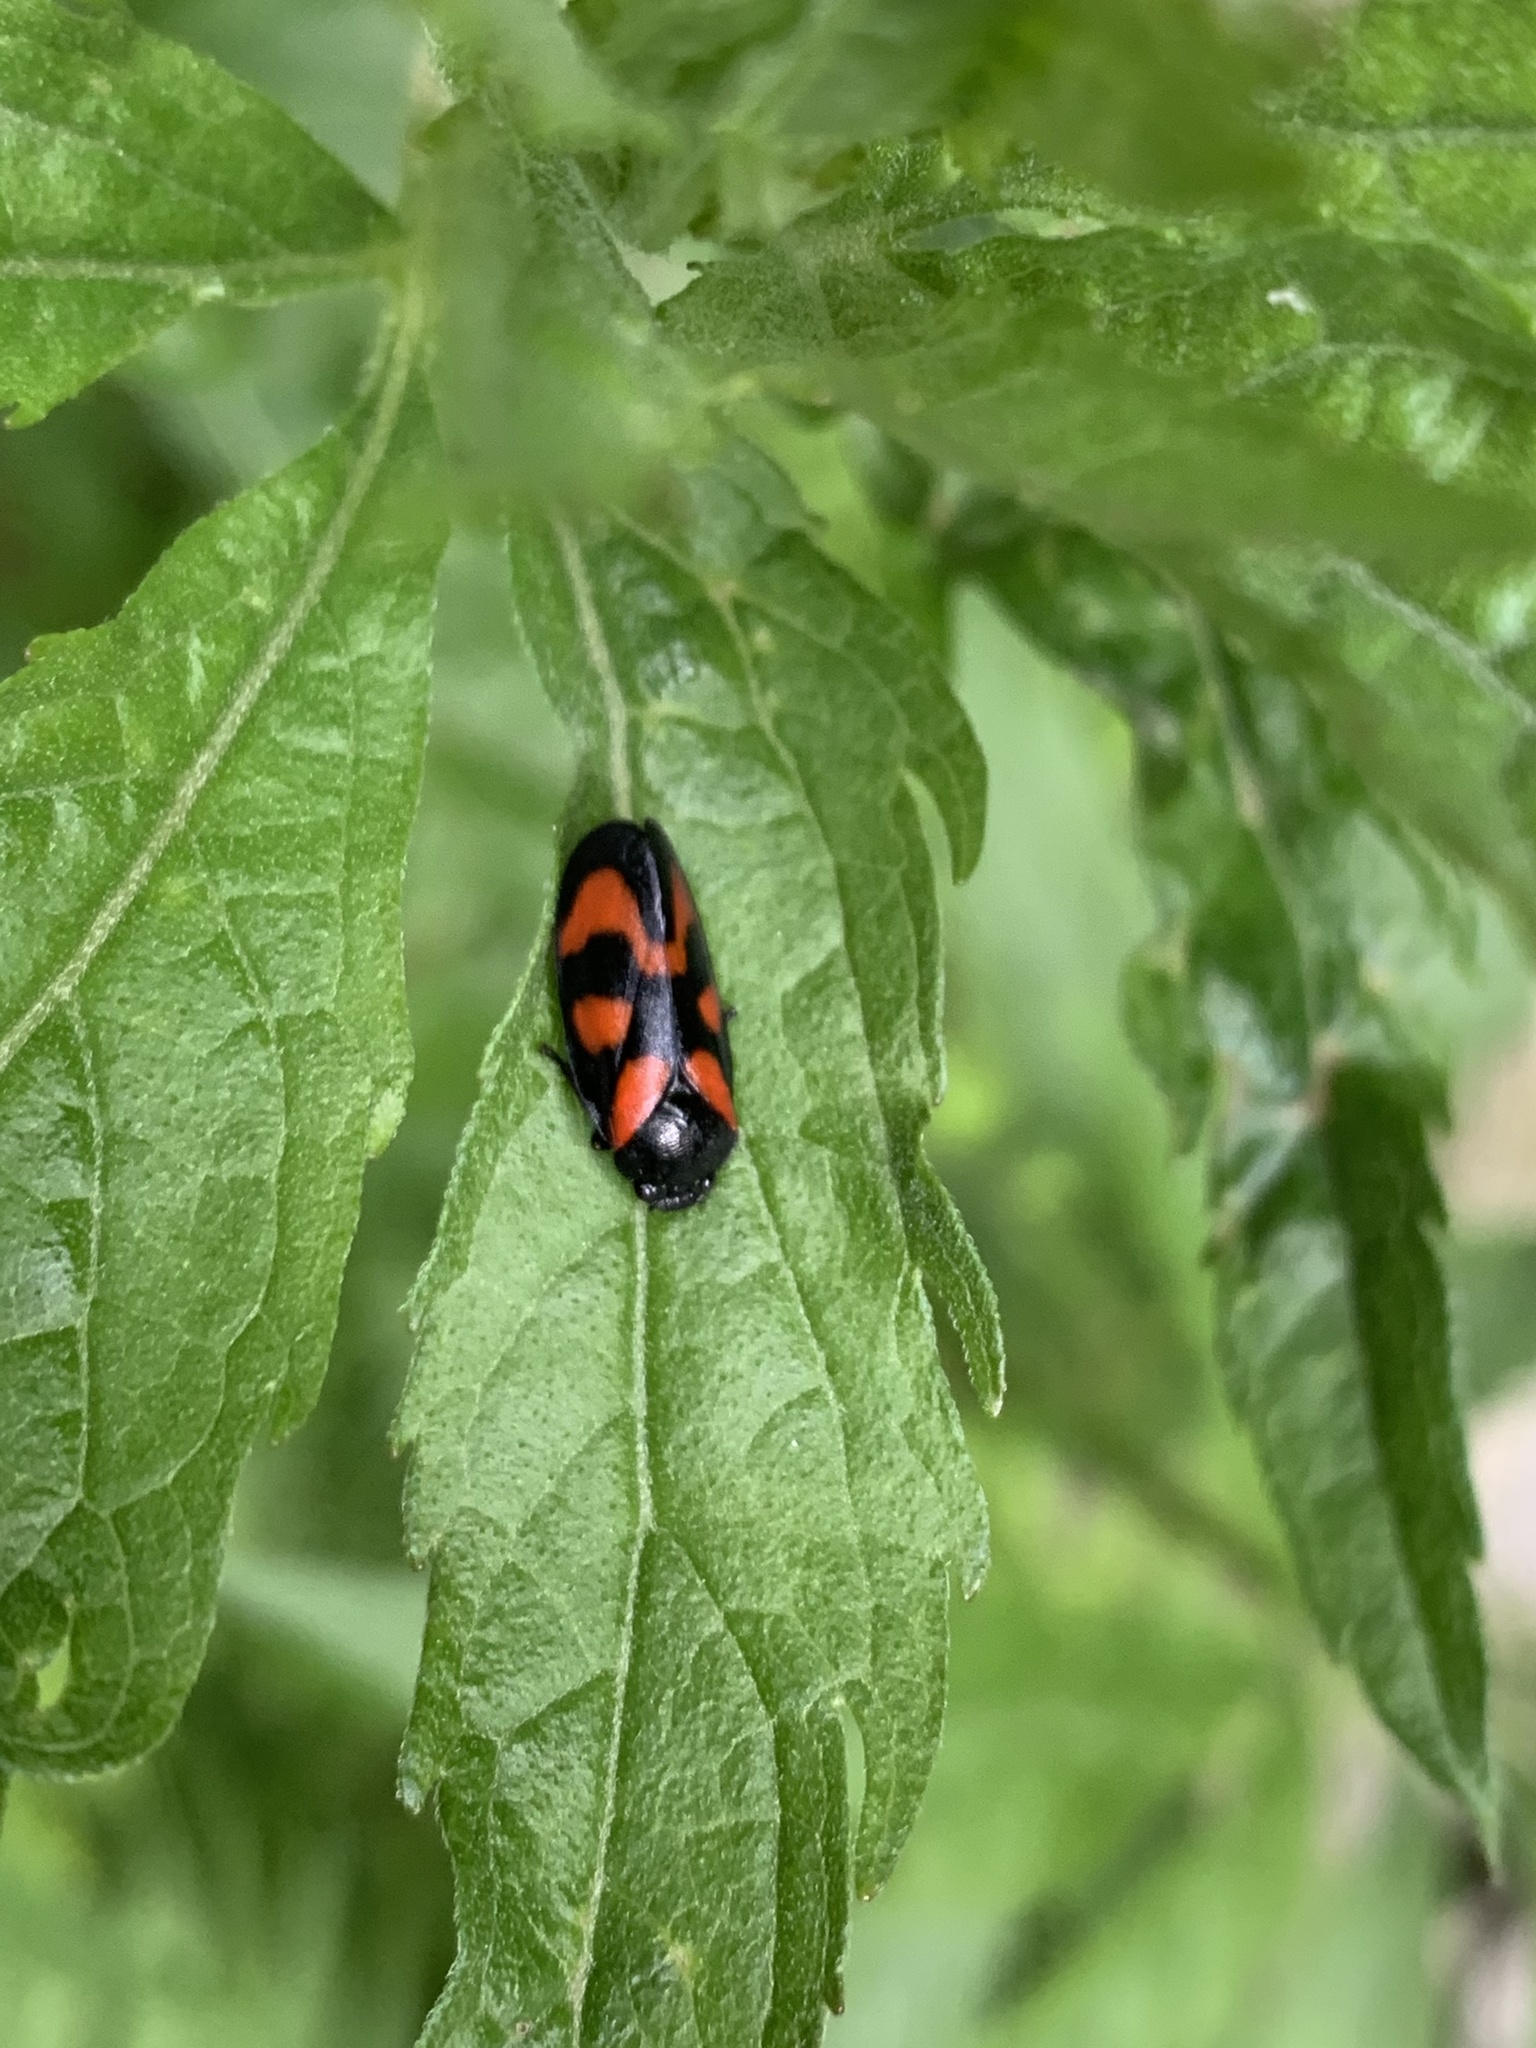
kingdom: Animalia
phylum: Arthropoda
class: Insecta
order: Hemiptera
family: Cercopidae
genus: Cercopis
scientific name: Cercopis vulnerata
